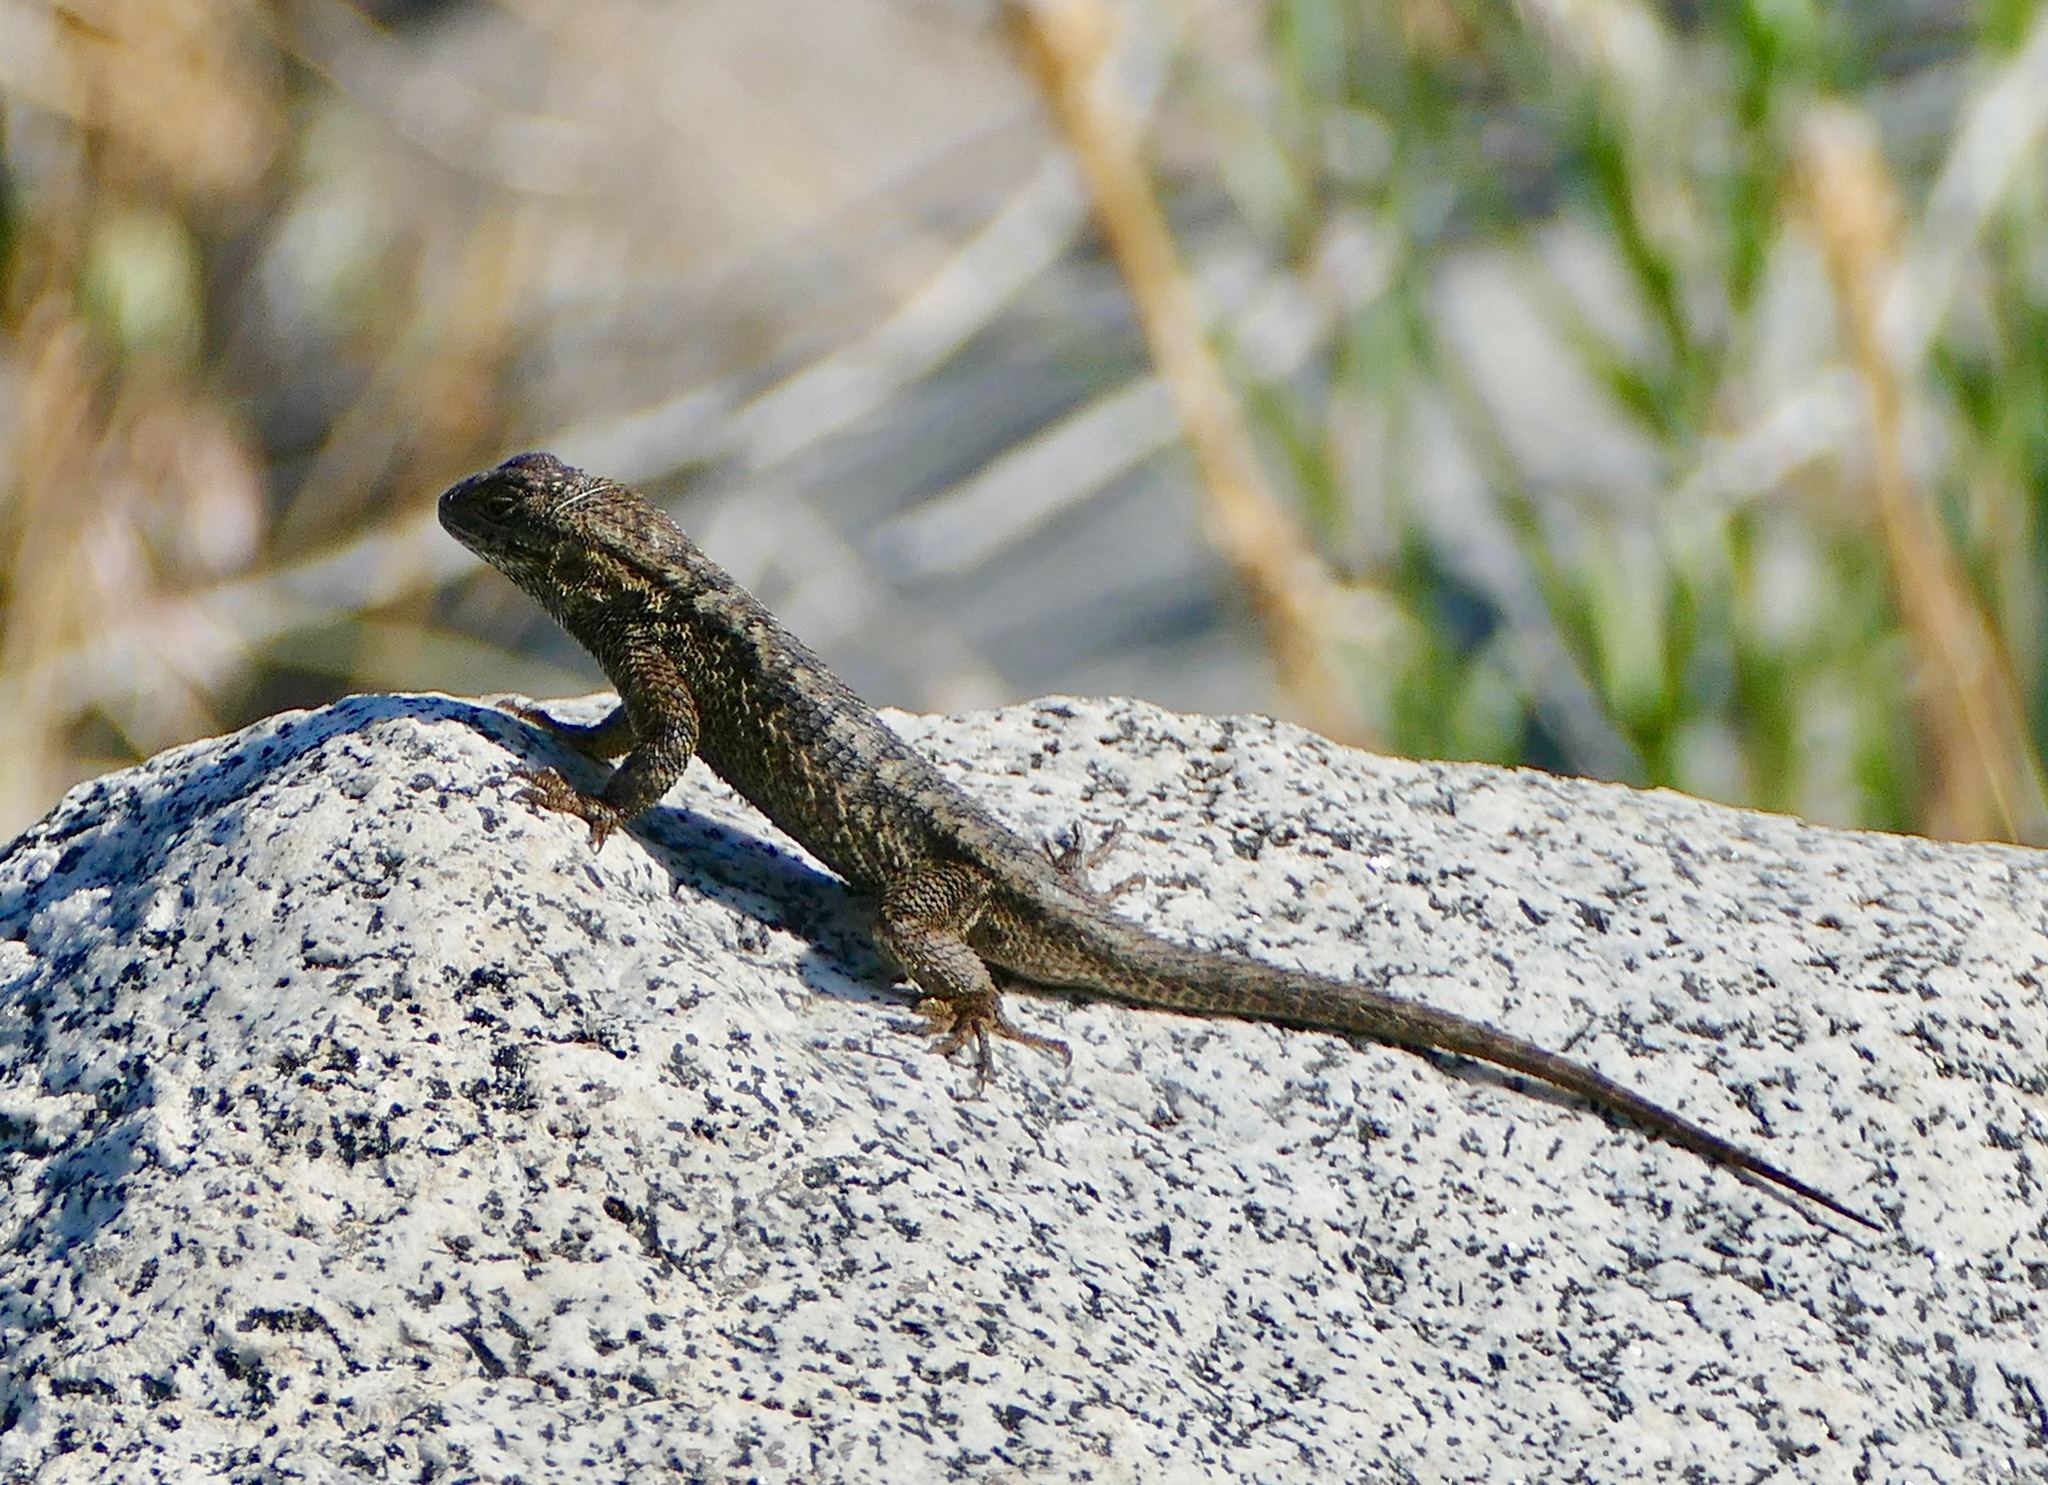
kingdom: Animalia
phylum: Chordata
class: Squamata
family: Phrynosomatidae
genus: Sceloporus
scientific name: Sceloporus occidentalis
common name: Western fence lizard
